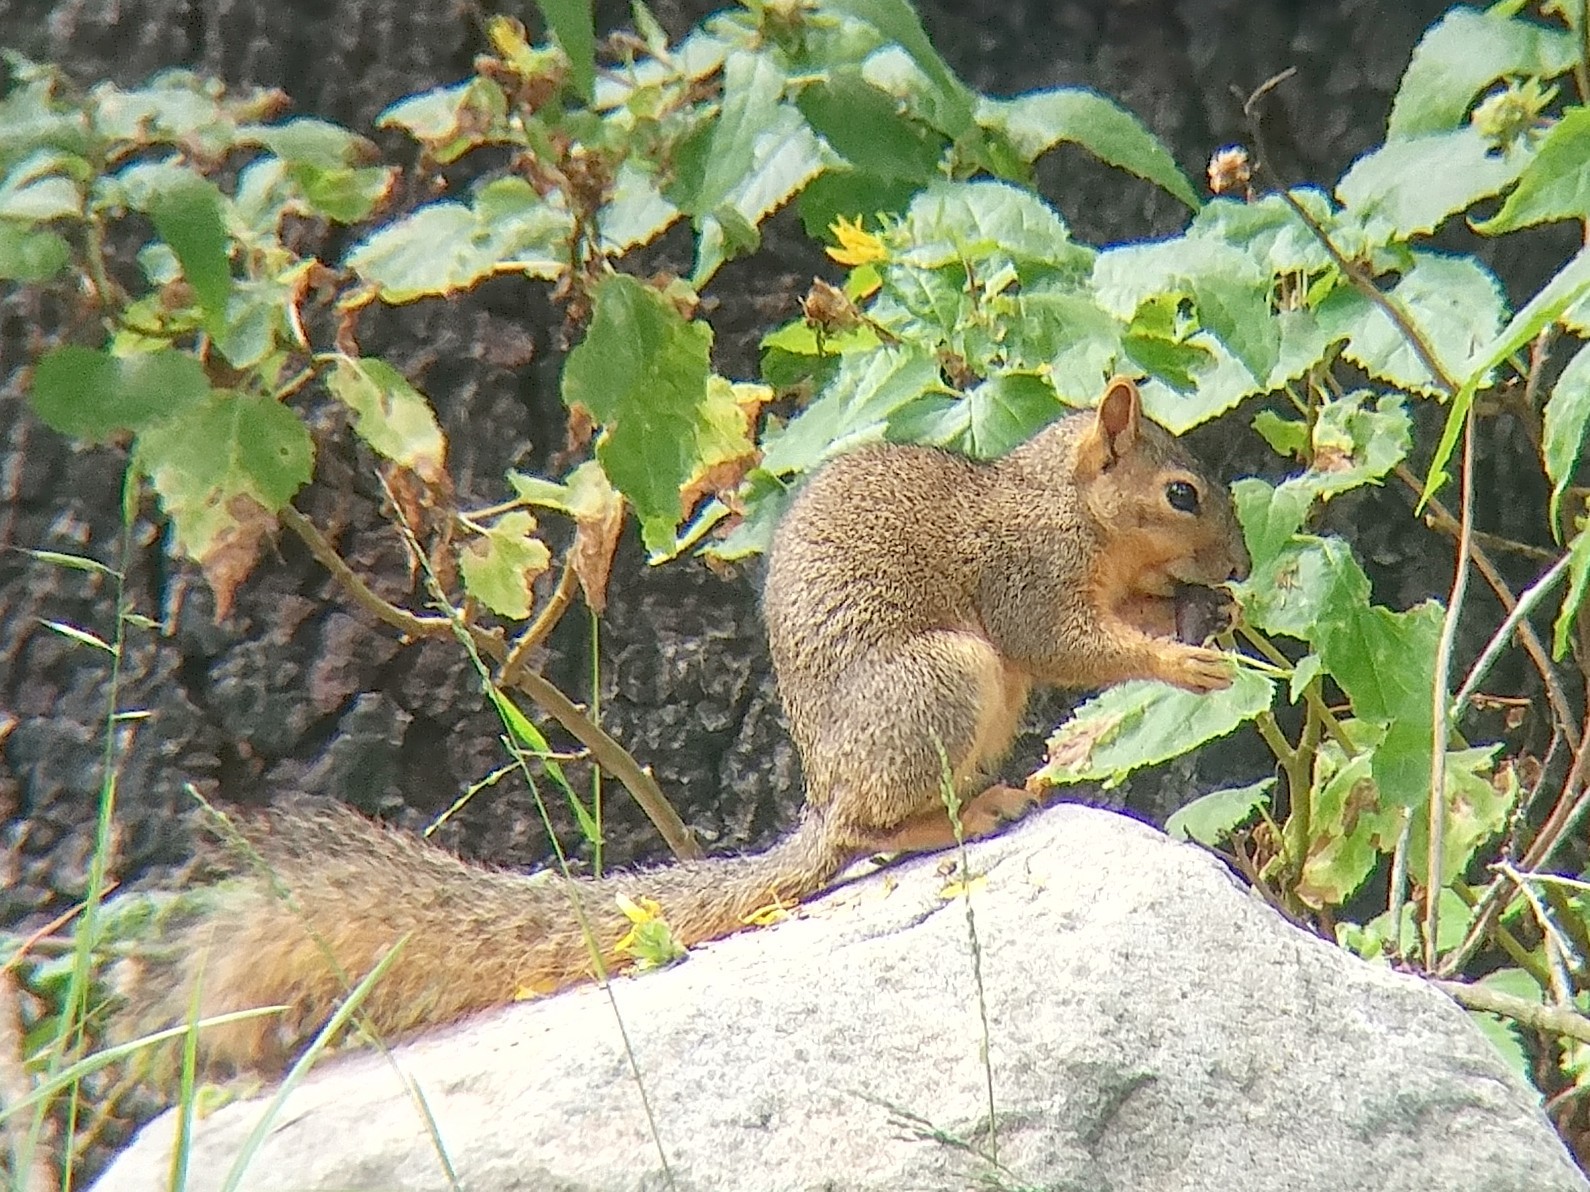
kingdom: Animalia
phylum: Chordata
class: Mammalia
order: Rodentia
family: Sciuridae
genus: Sciurus
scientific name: Sciurus niger
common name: Fox squirrel
